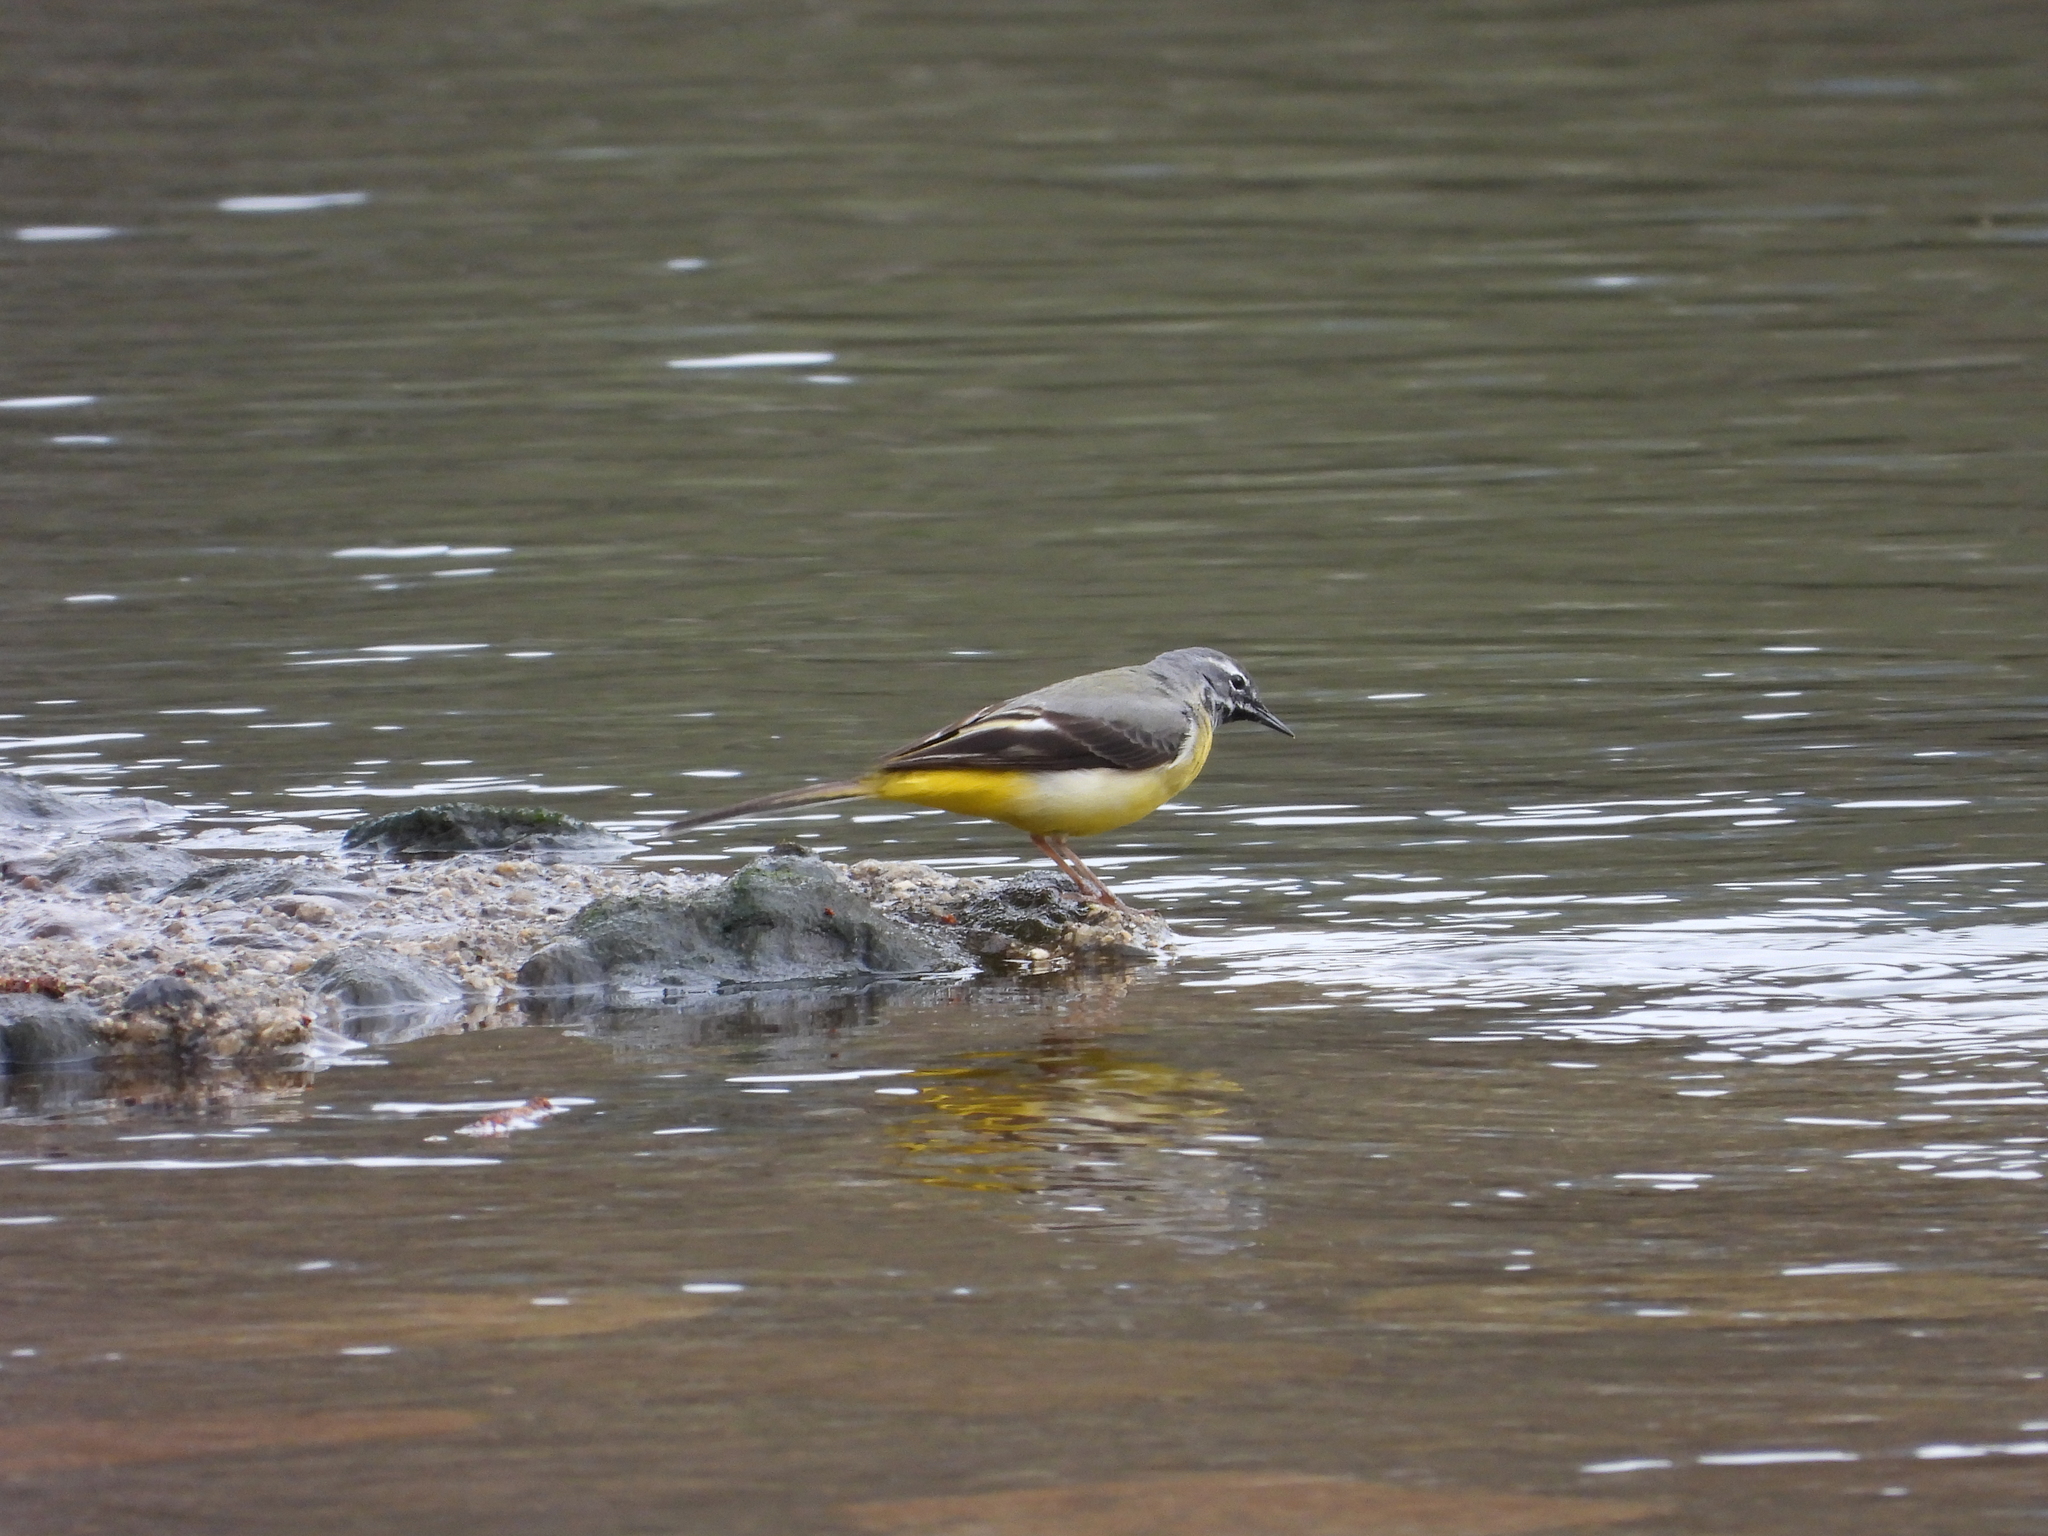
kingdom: Animalia
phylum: Chordata
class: Aves
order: Passeriformes
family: Motacillidae
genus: Motacilla
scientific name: Motacilla cinerea
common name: Grey wagtail
